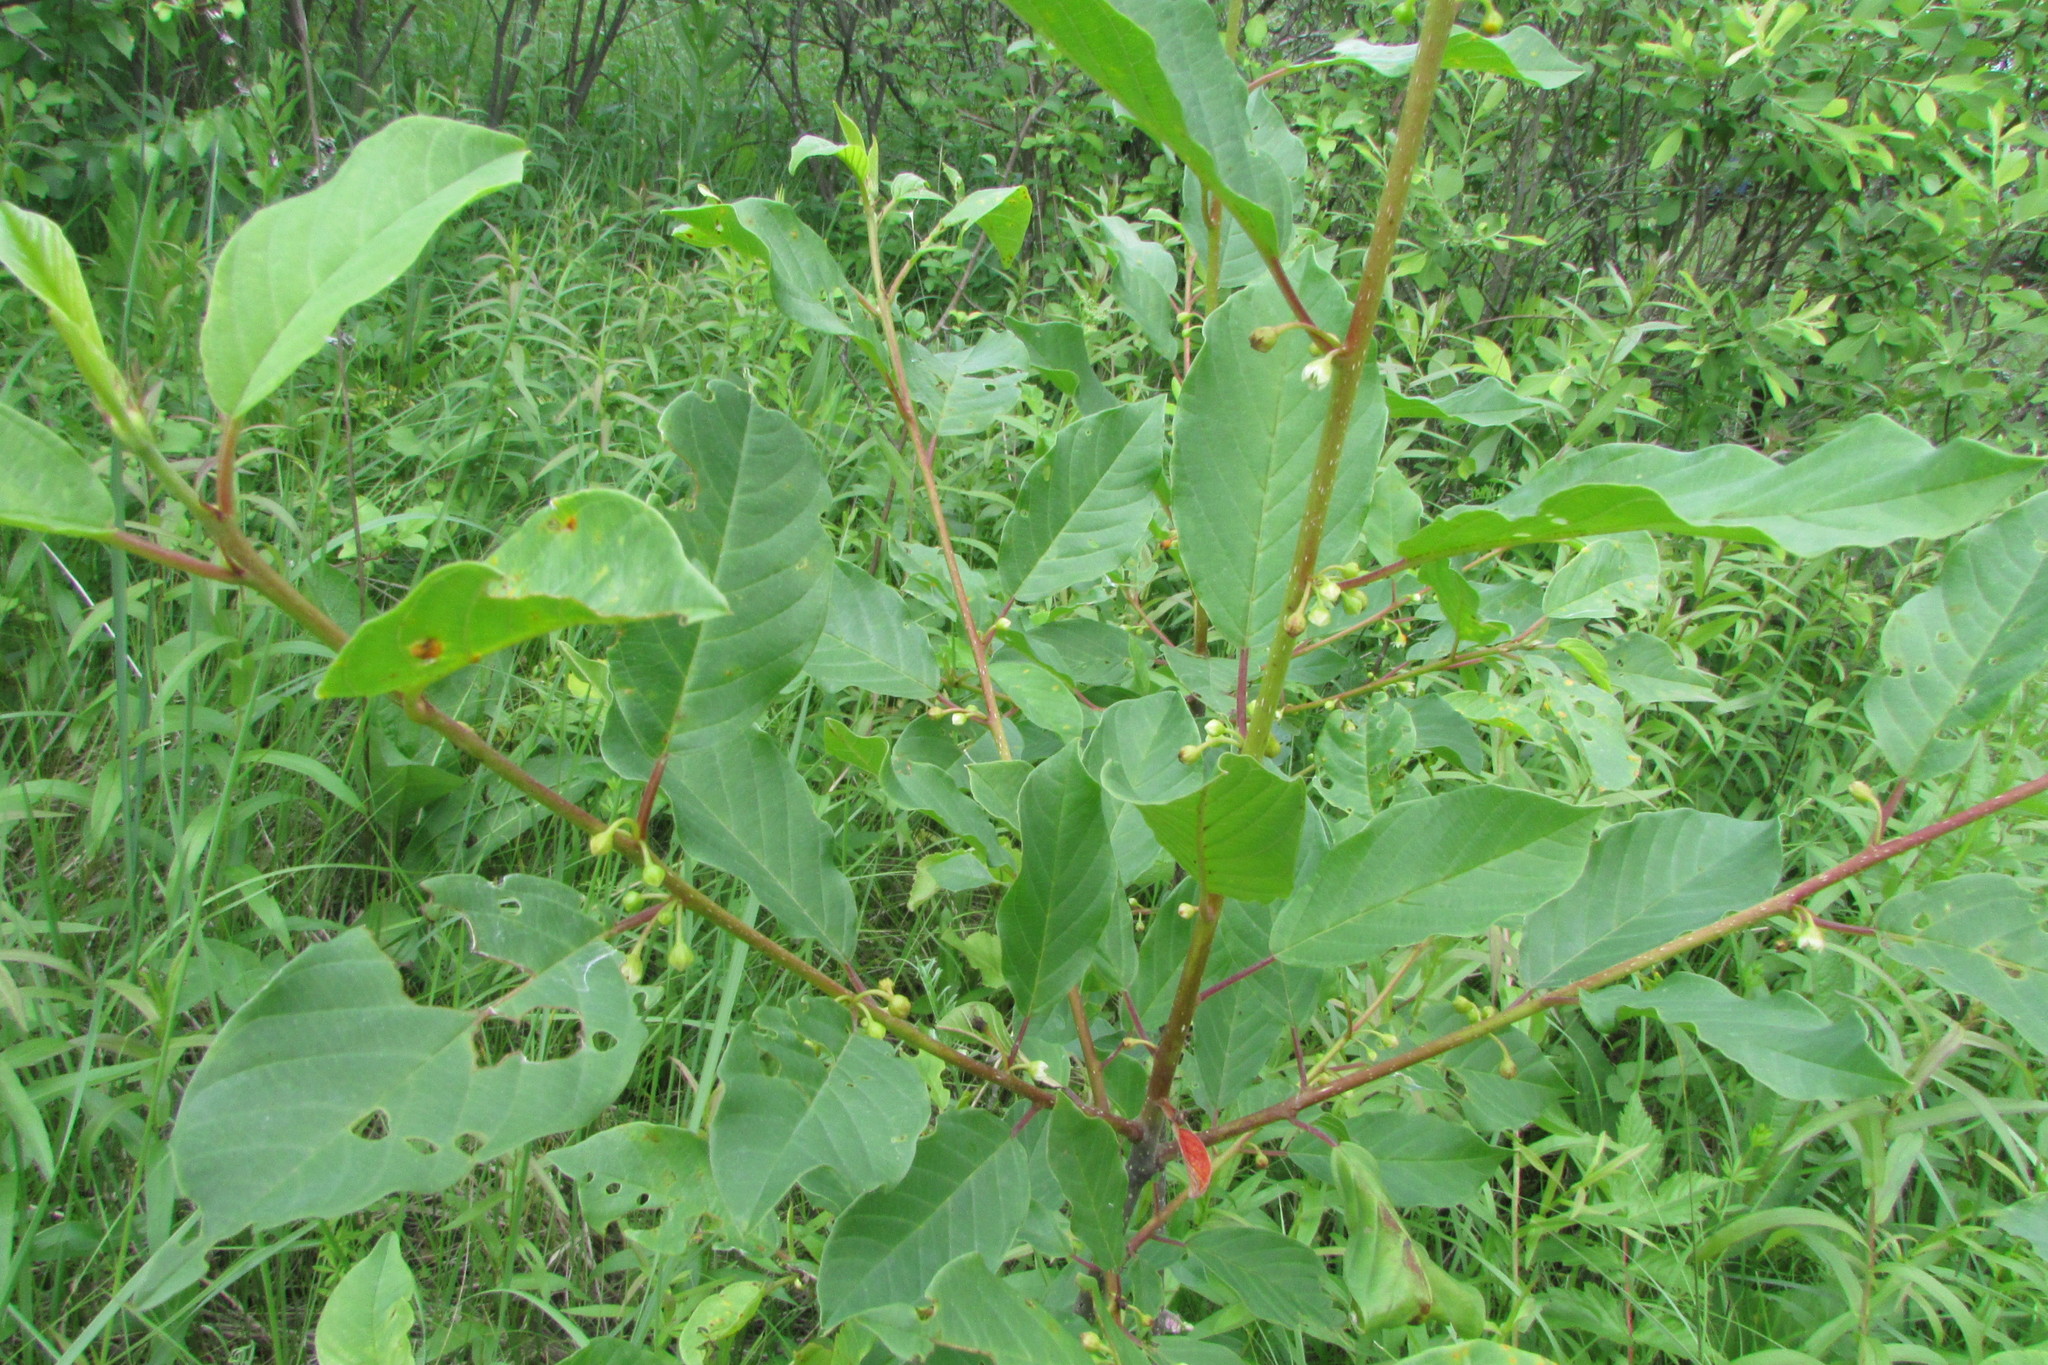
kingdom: Plantae
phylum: Tracheophyta
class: Magnoliopsida
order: Rosales
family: Rhamnaceae
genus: Frangula
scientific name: Frangula alnus
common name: Alder buckthorn
